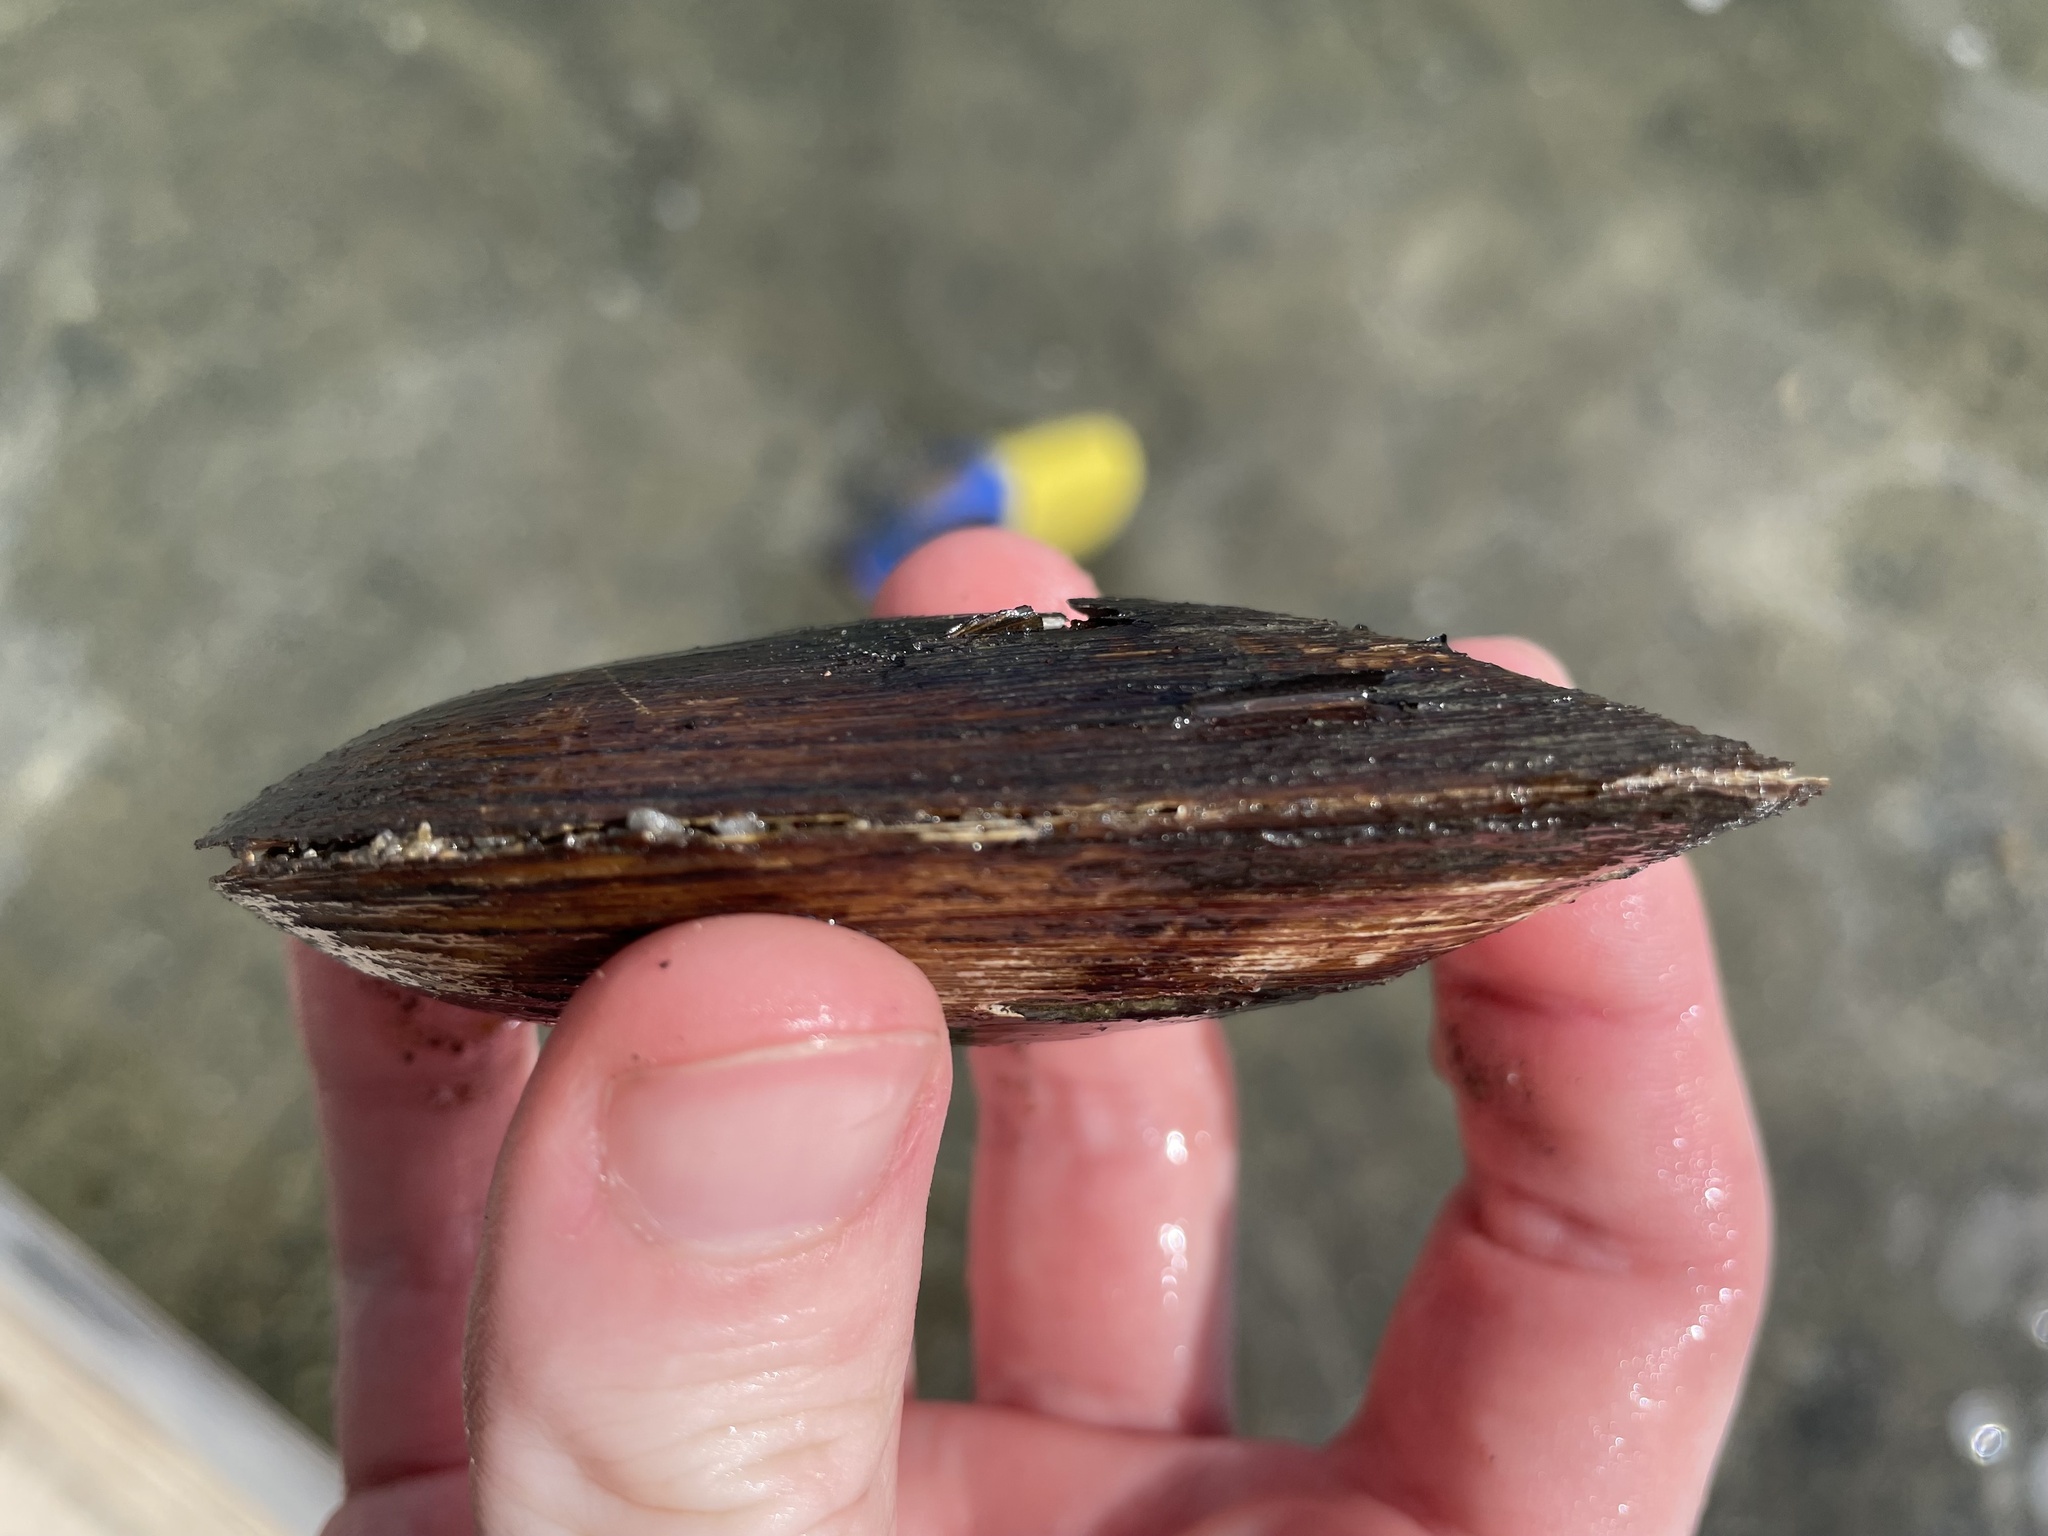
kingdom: Animalia
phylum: Mollusca
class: Bivalvia
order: Unionida
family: Unionidae
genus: Elliptio
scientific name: Elliptio complanata
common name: Eastern elliptio
